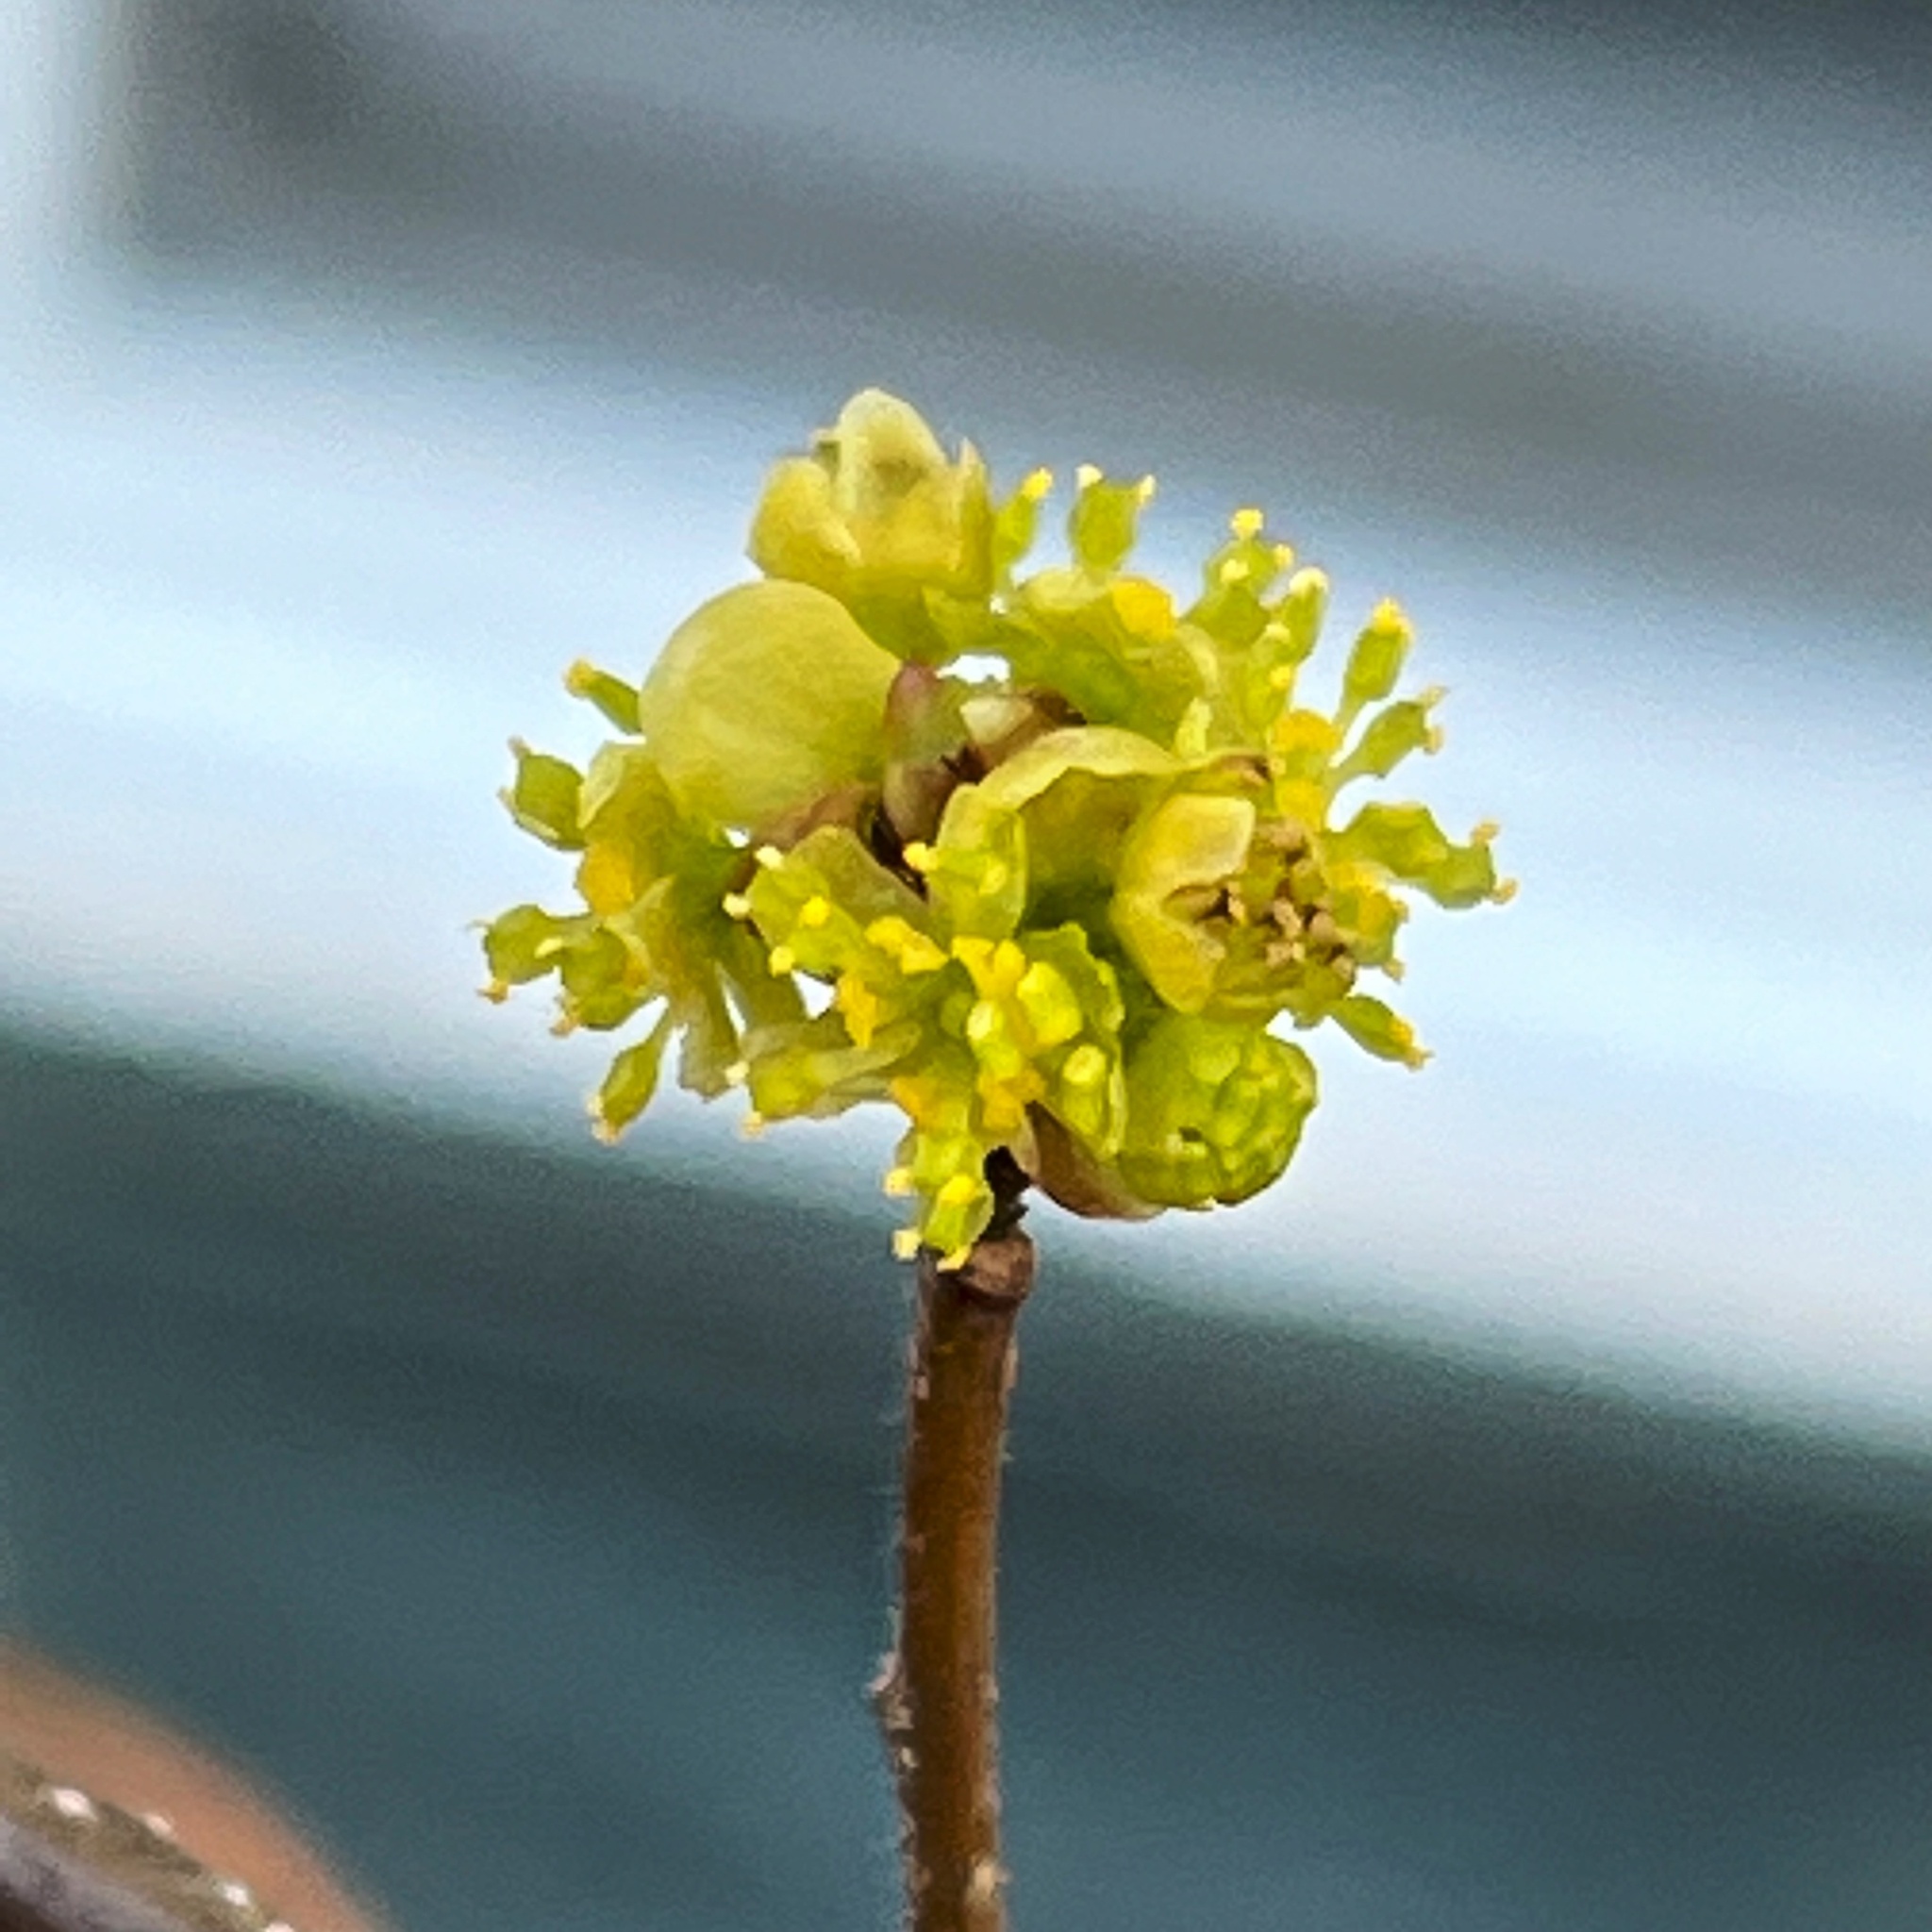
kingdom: Plantae
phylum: Tracheophyta
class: Magnoliopsida
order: Laurales
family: Lauraceae
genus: Lindera
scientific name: Lindera benzoin
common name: Spicebush
